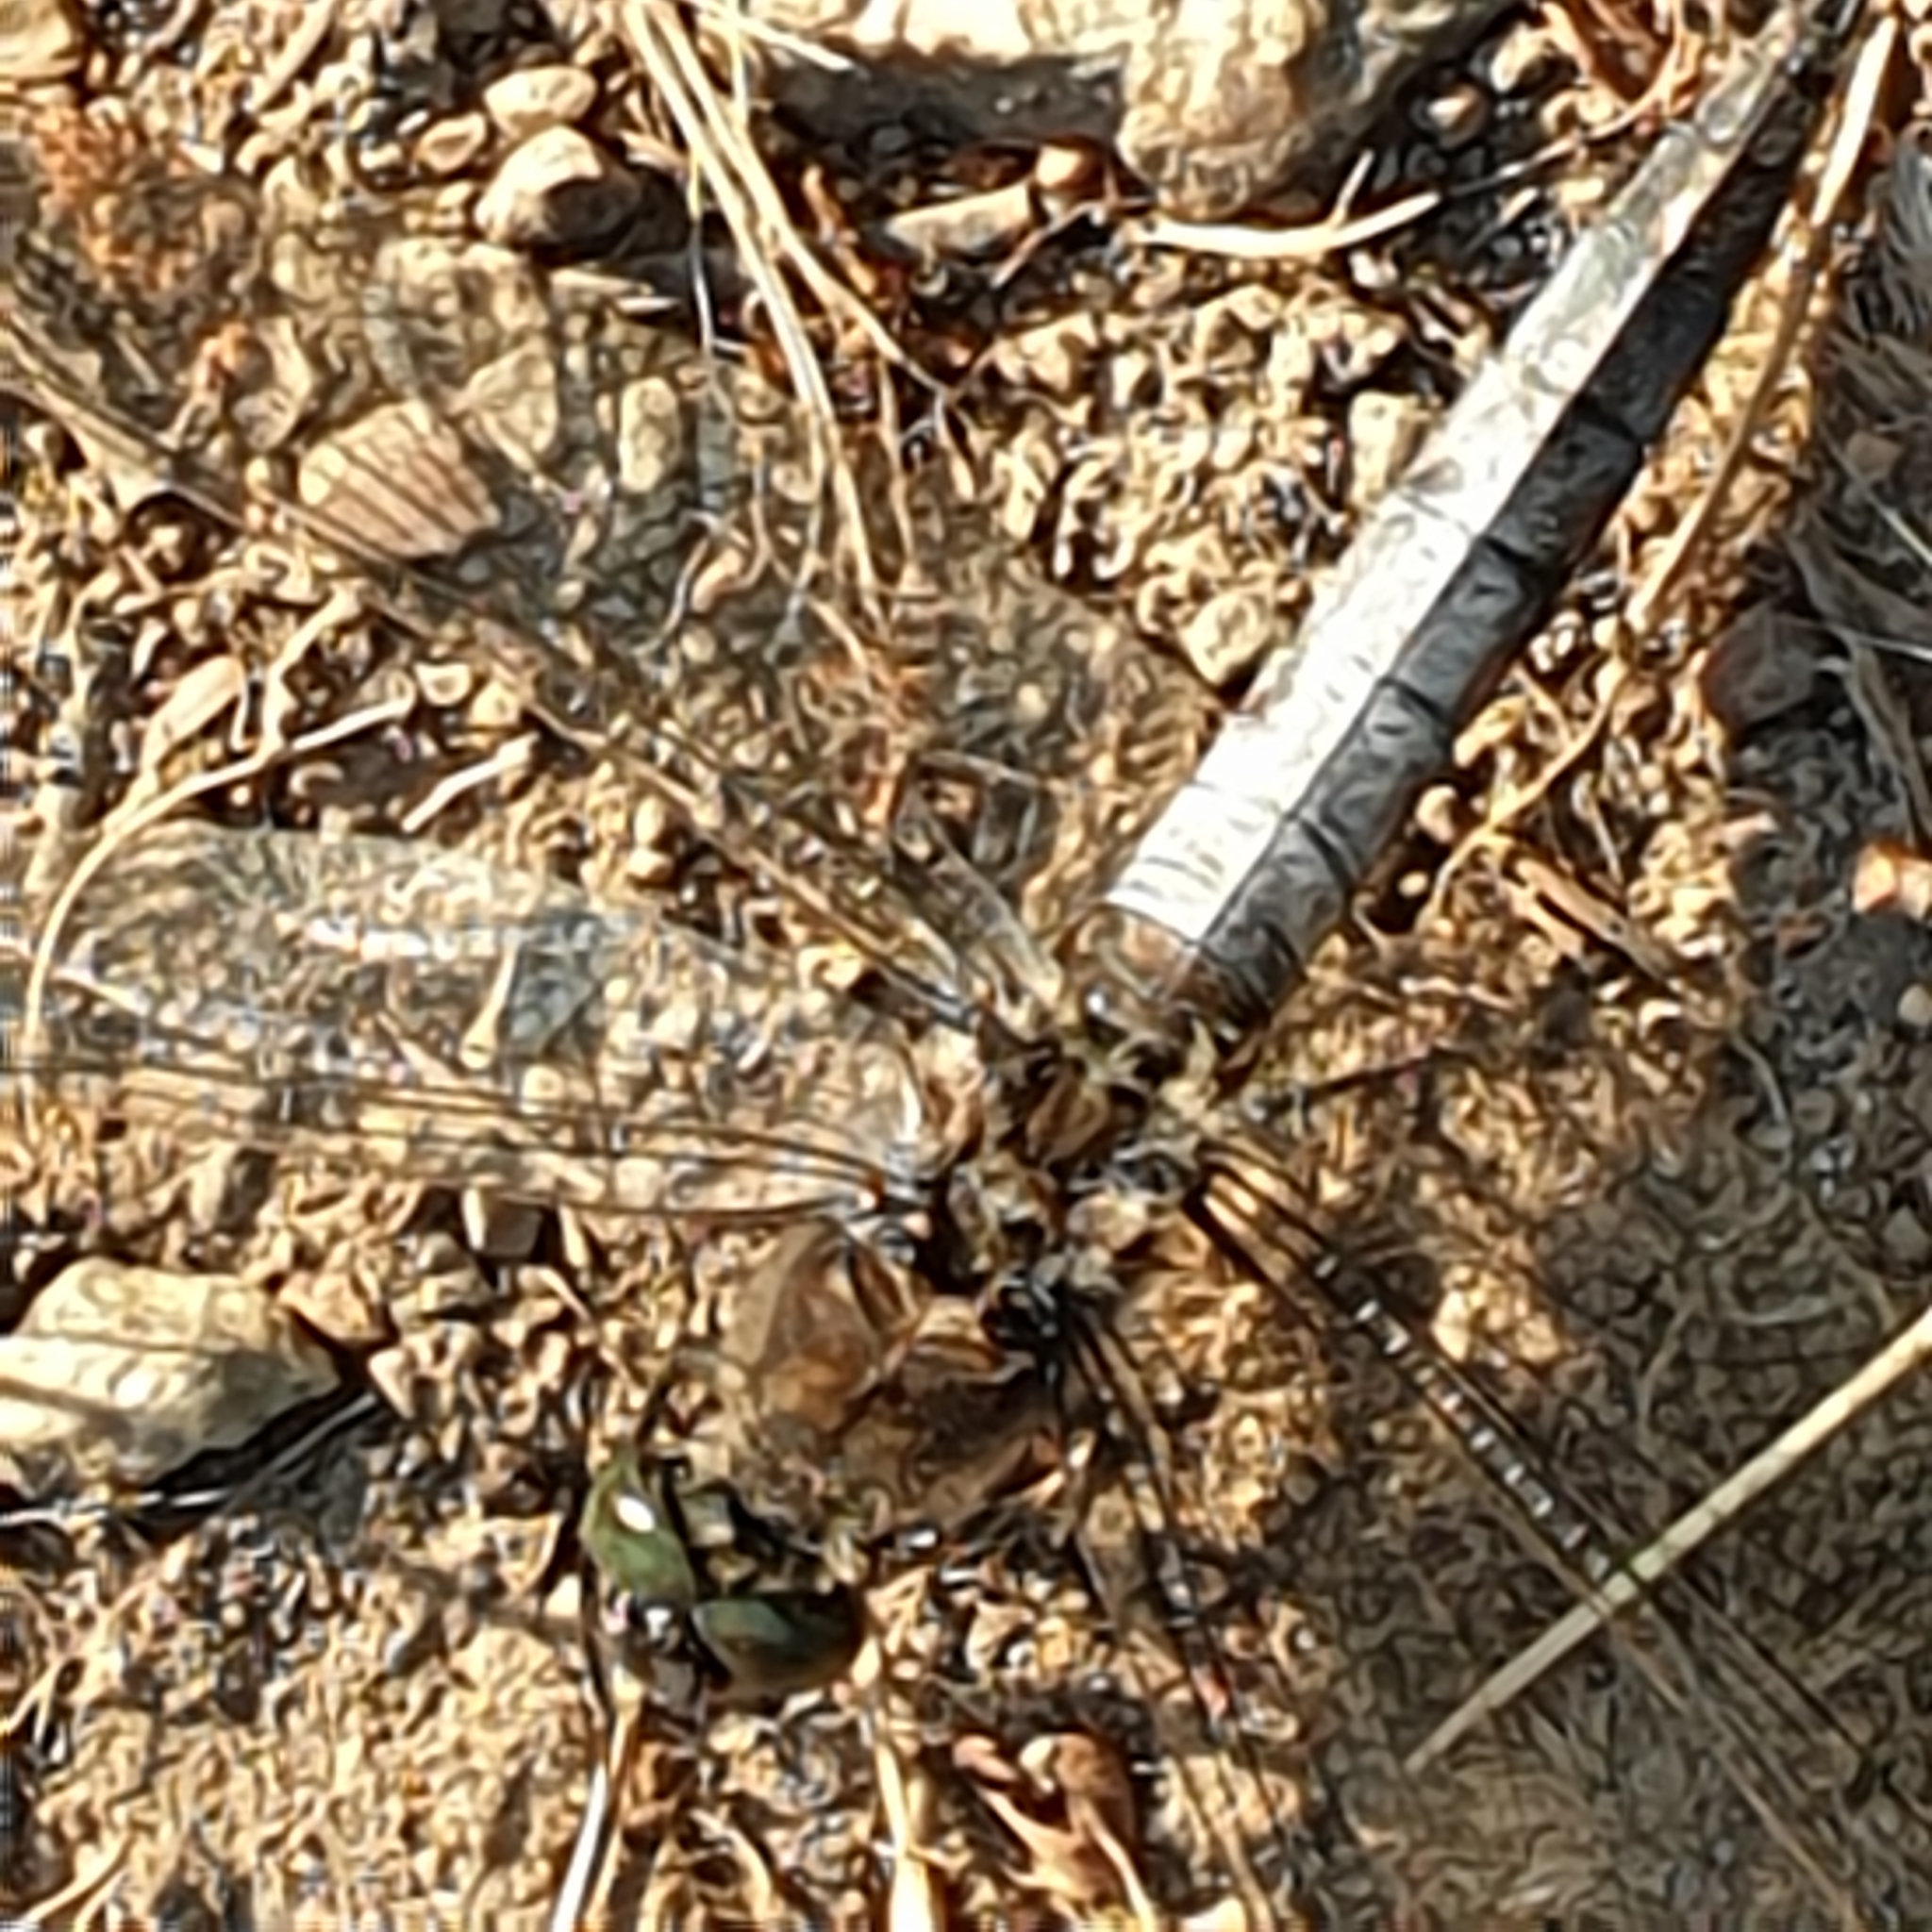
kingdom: Animalia
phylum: Arthropoda
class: Insecta
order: Odonata
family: Libellulidae
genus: Orthetrum
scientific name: Orthetrum cancellatum
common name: Black-tailed skimmer
